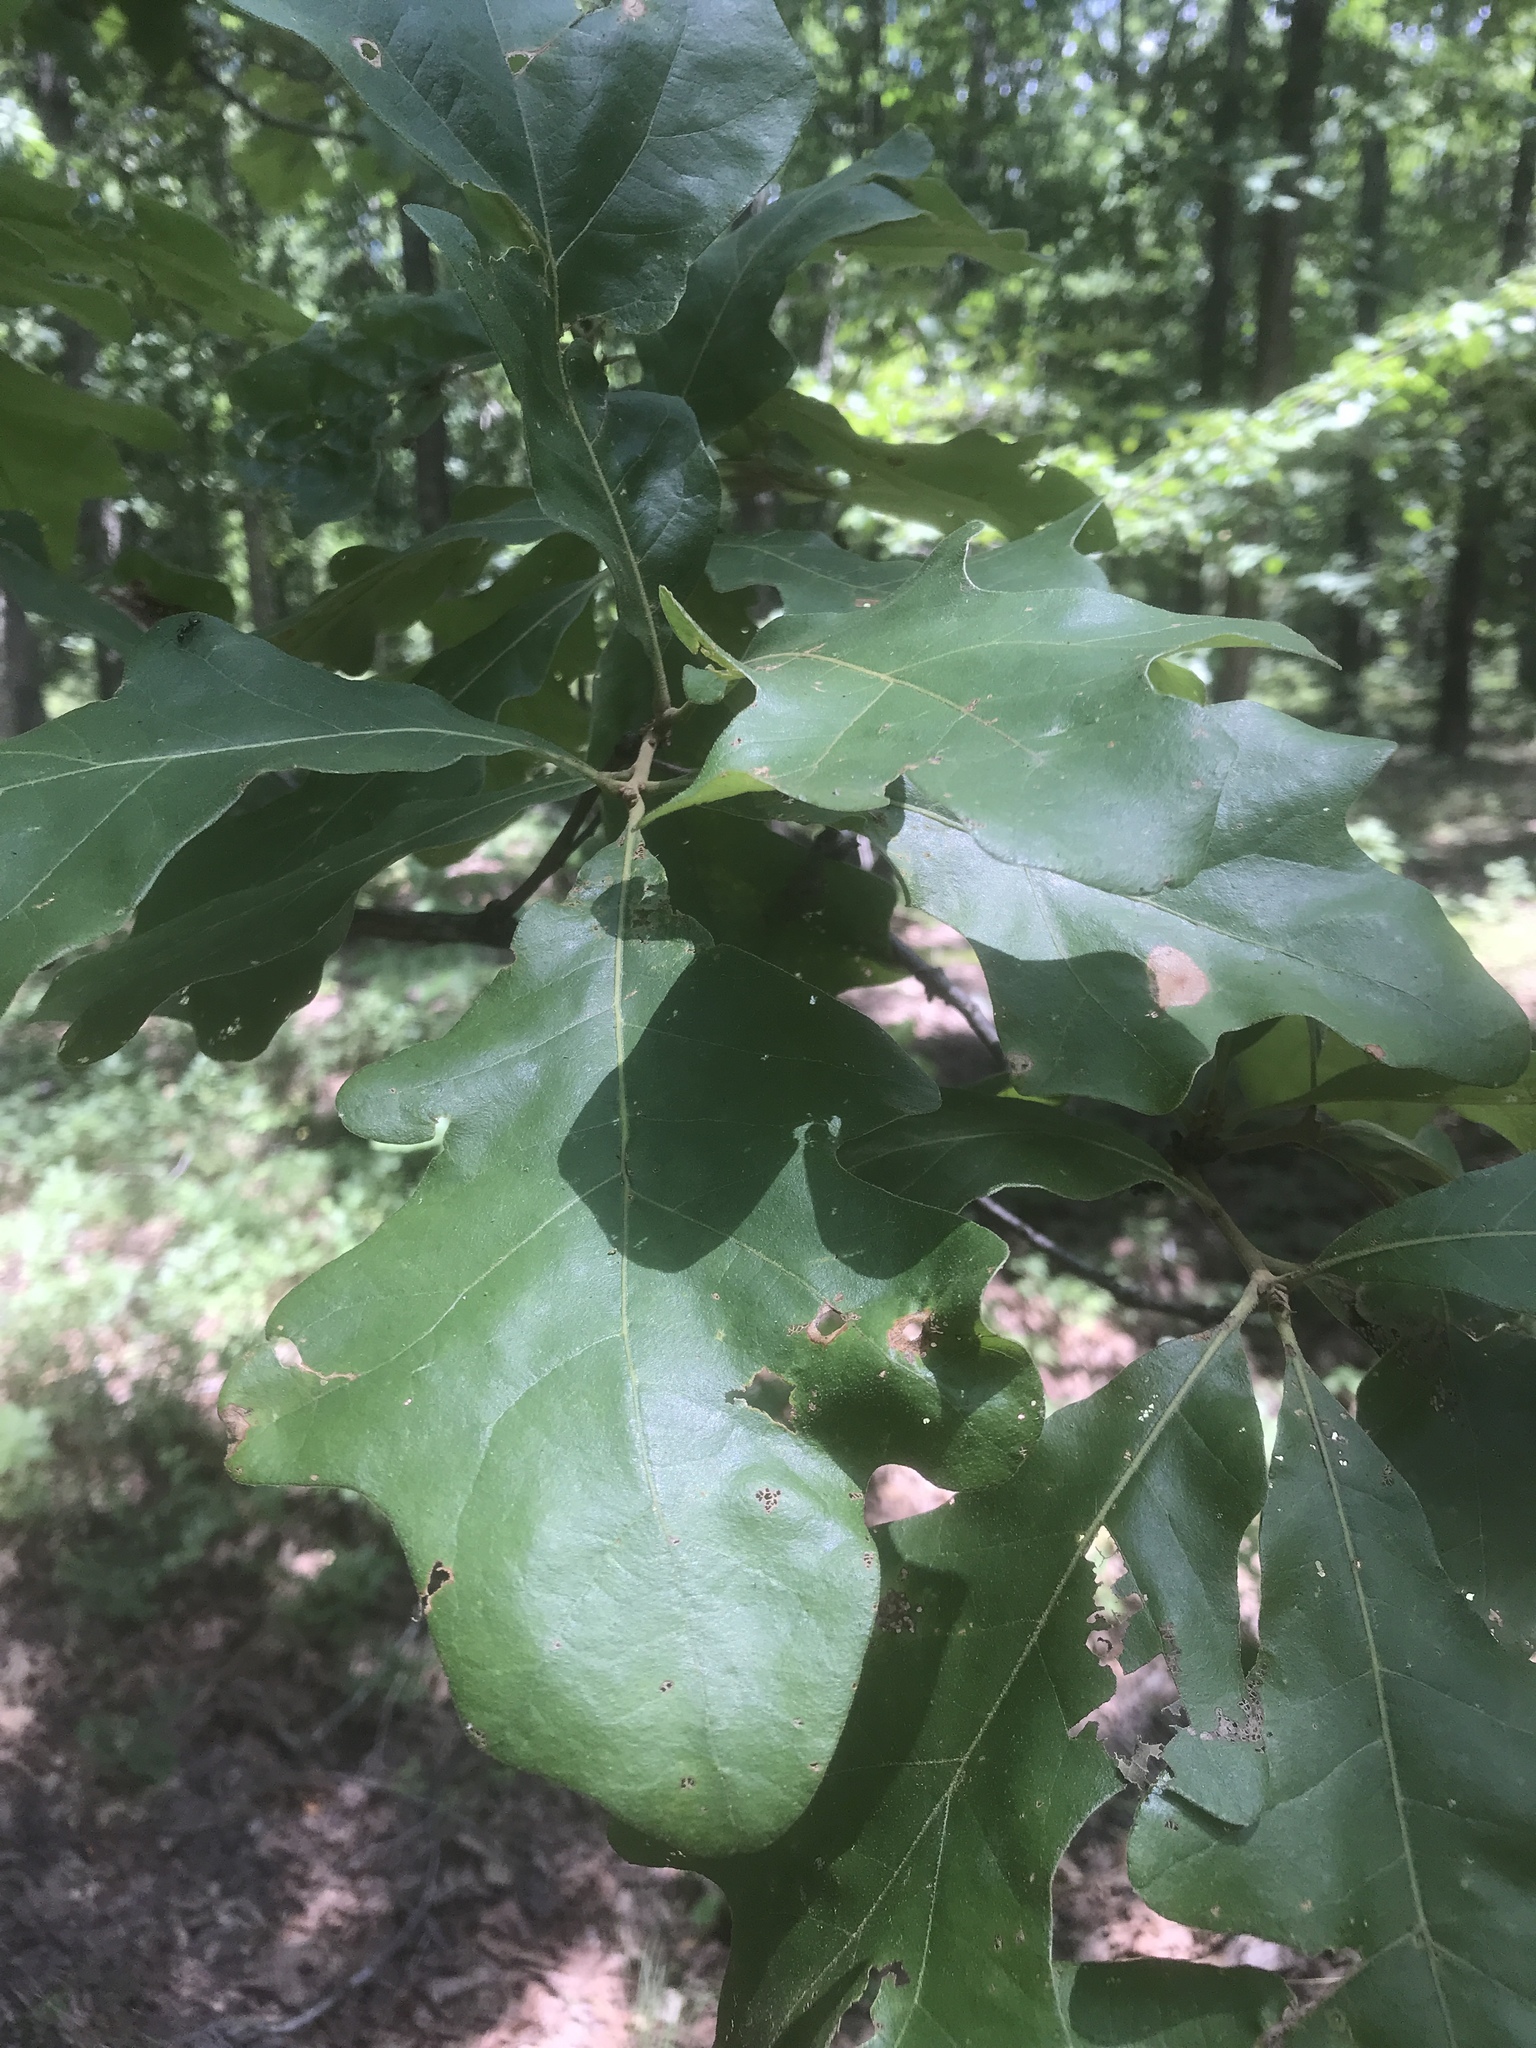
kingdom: Plantae
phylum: Tracheophyta
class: Magnoliopsida
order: Fagales
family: Fagaceae
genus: Quercus
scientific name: Quercus stellata
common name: Post oak
